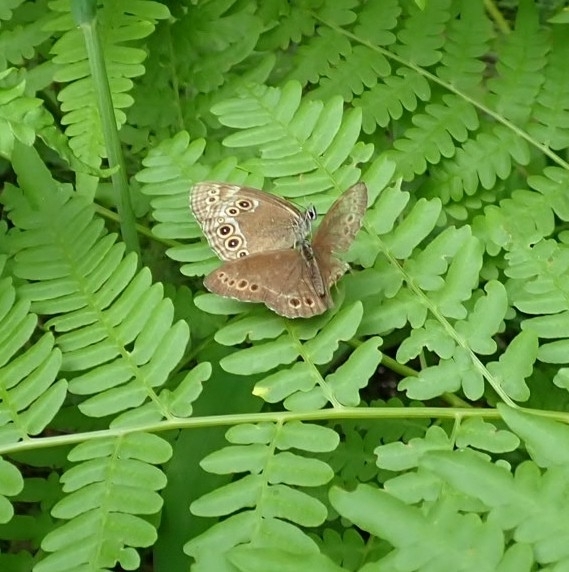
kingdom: Animalia
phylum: Arthropoda
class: Insecta
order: Lepidoptera
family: Nymphalidae
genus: Pararge
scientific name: Pararge Lopinga achine
